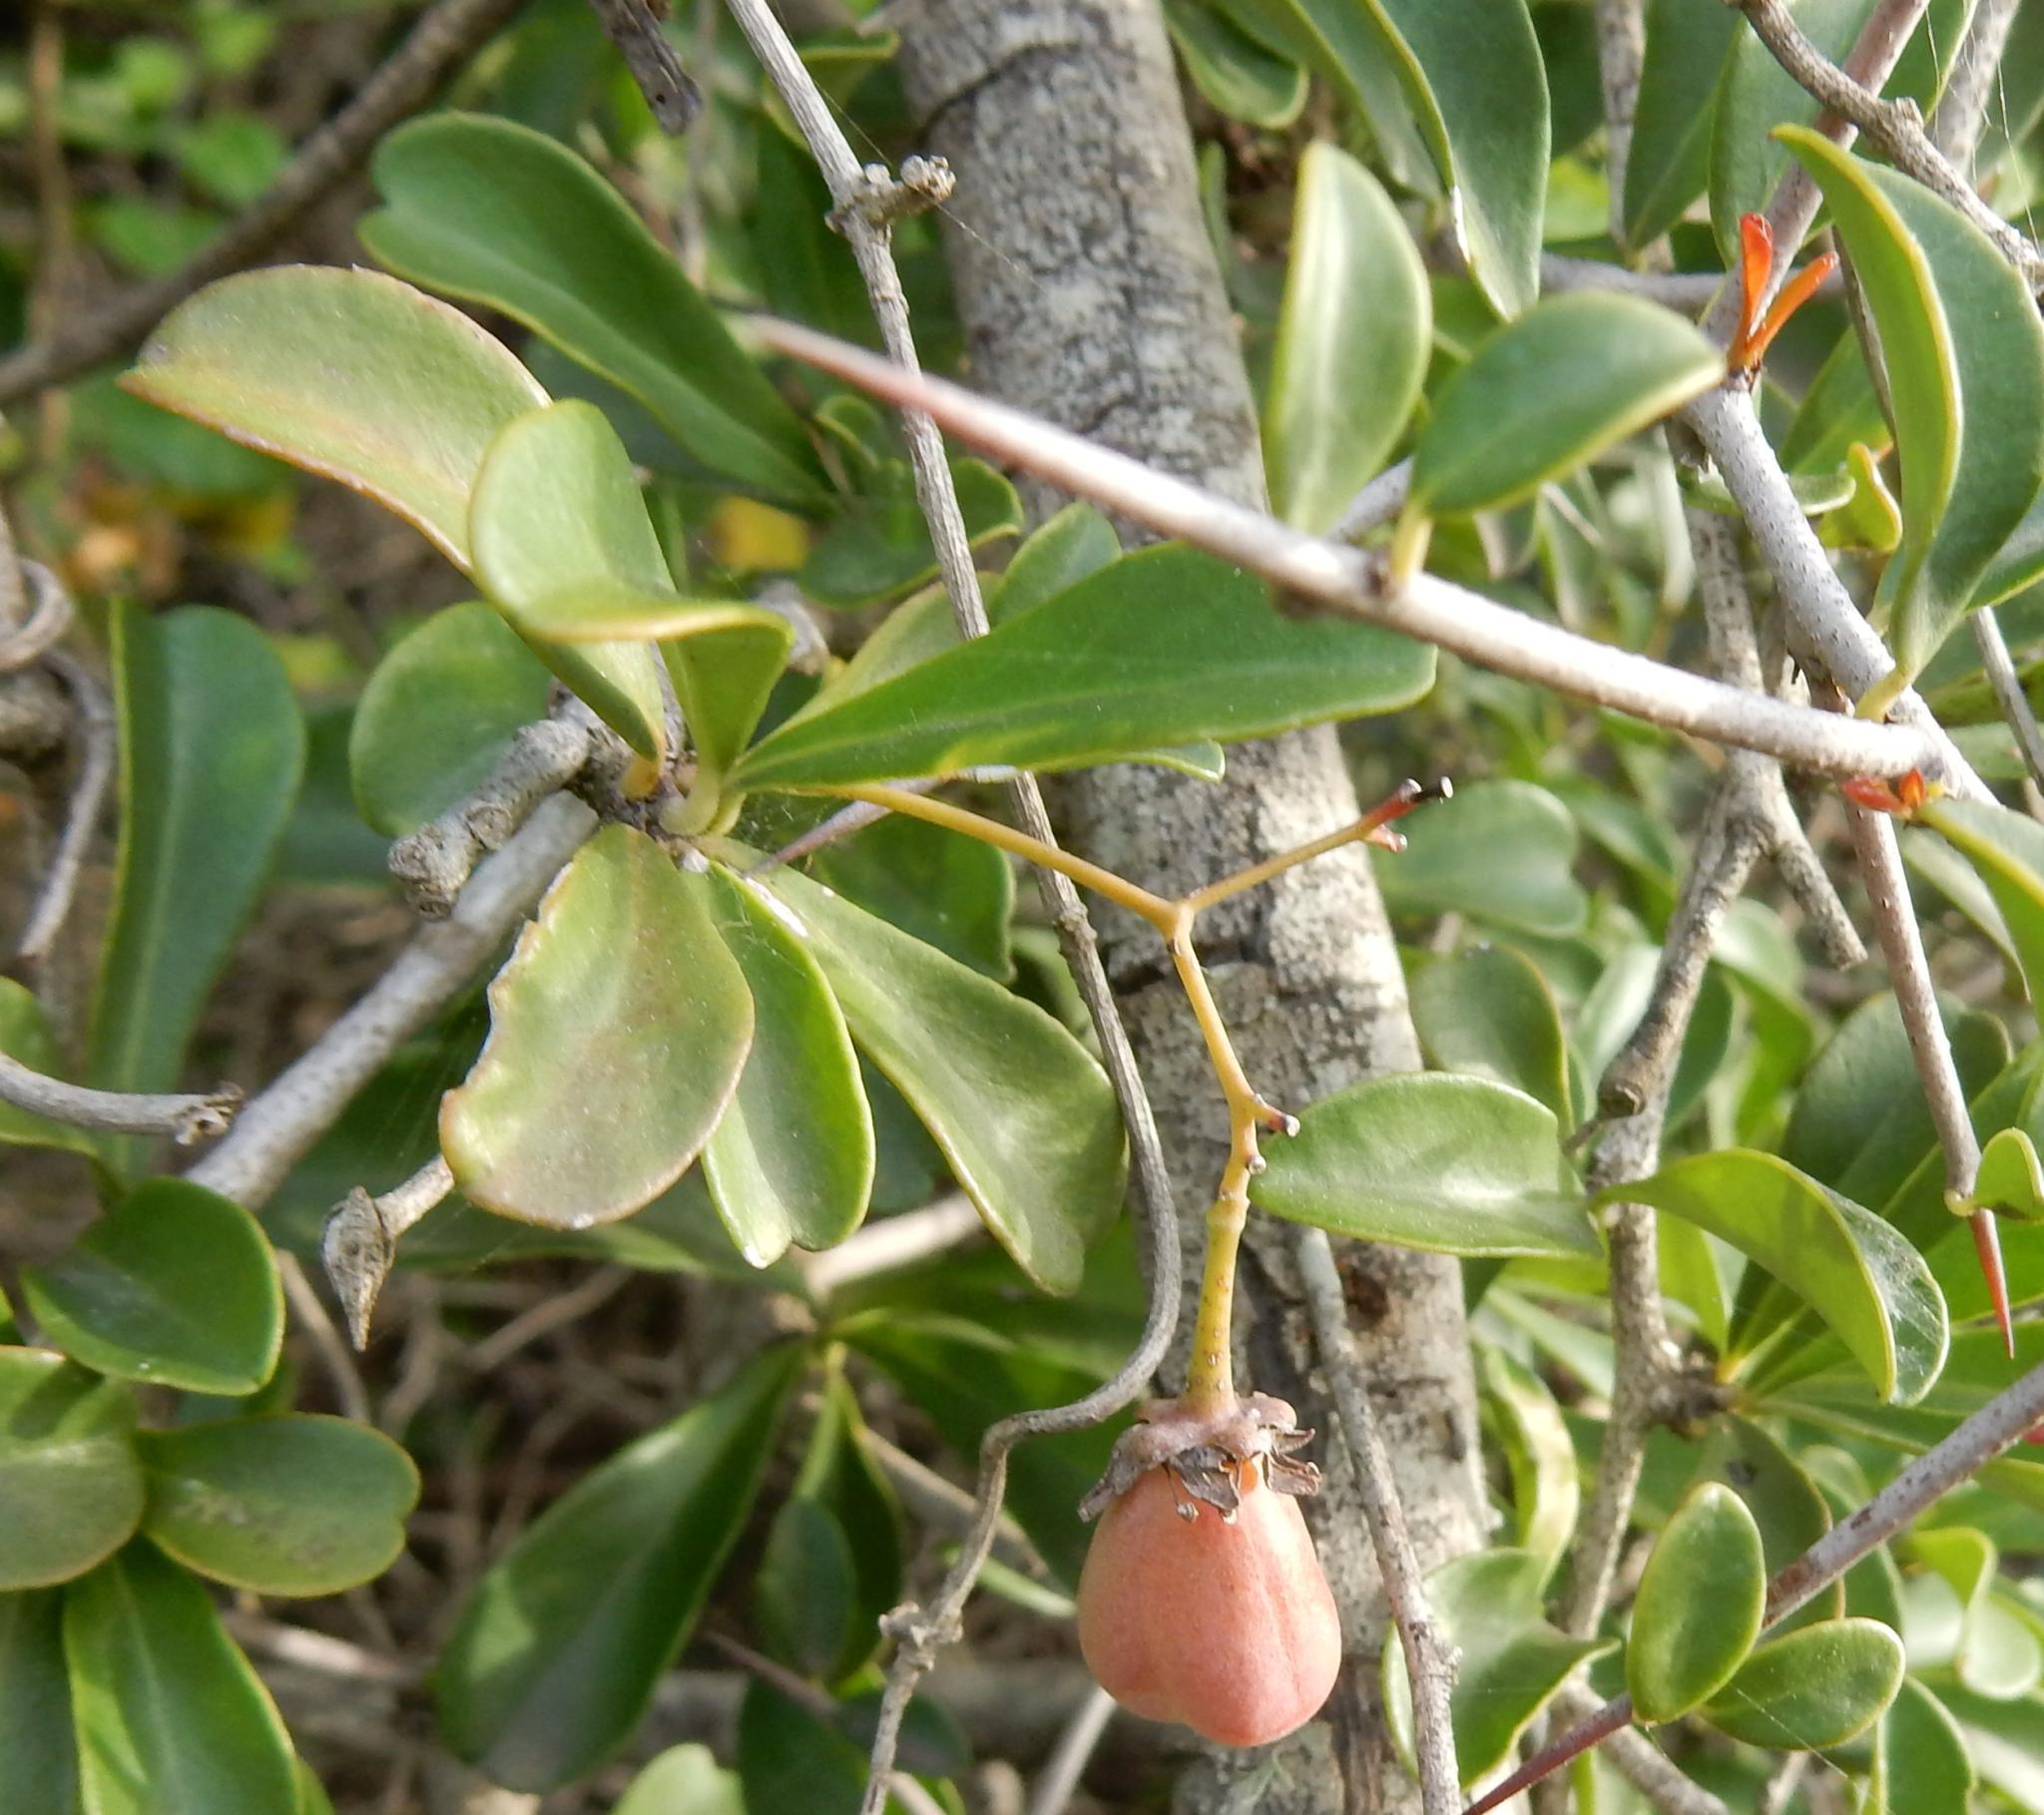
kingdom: Plantae
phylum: Tracheophyta
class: Magnoliopsida
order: Celastrales
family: Celastraceae
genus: Putterlickia
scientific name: Putterlickia pyracantha
